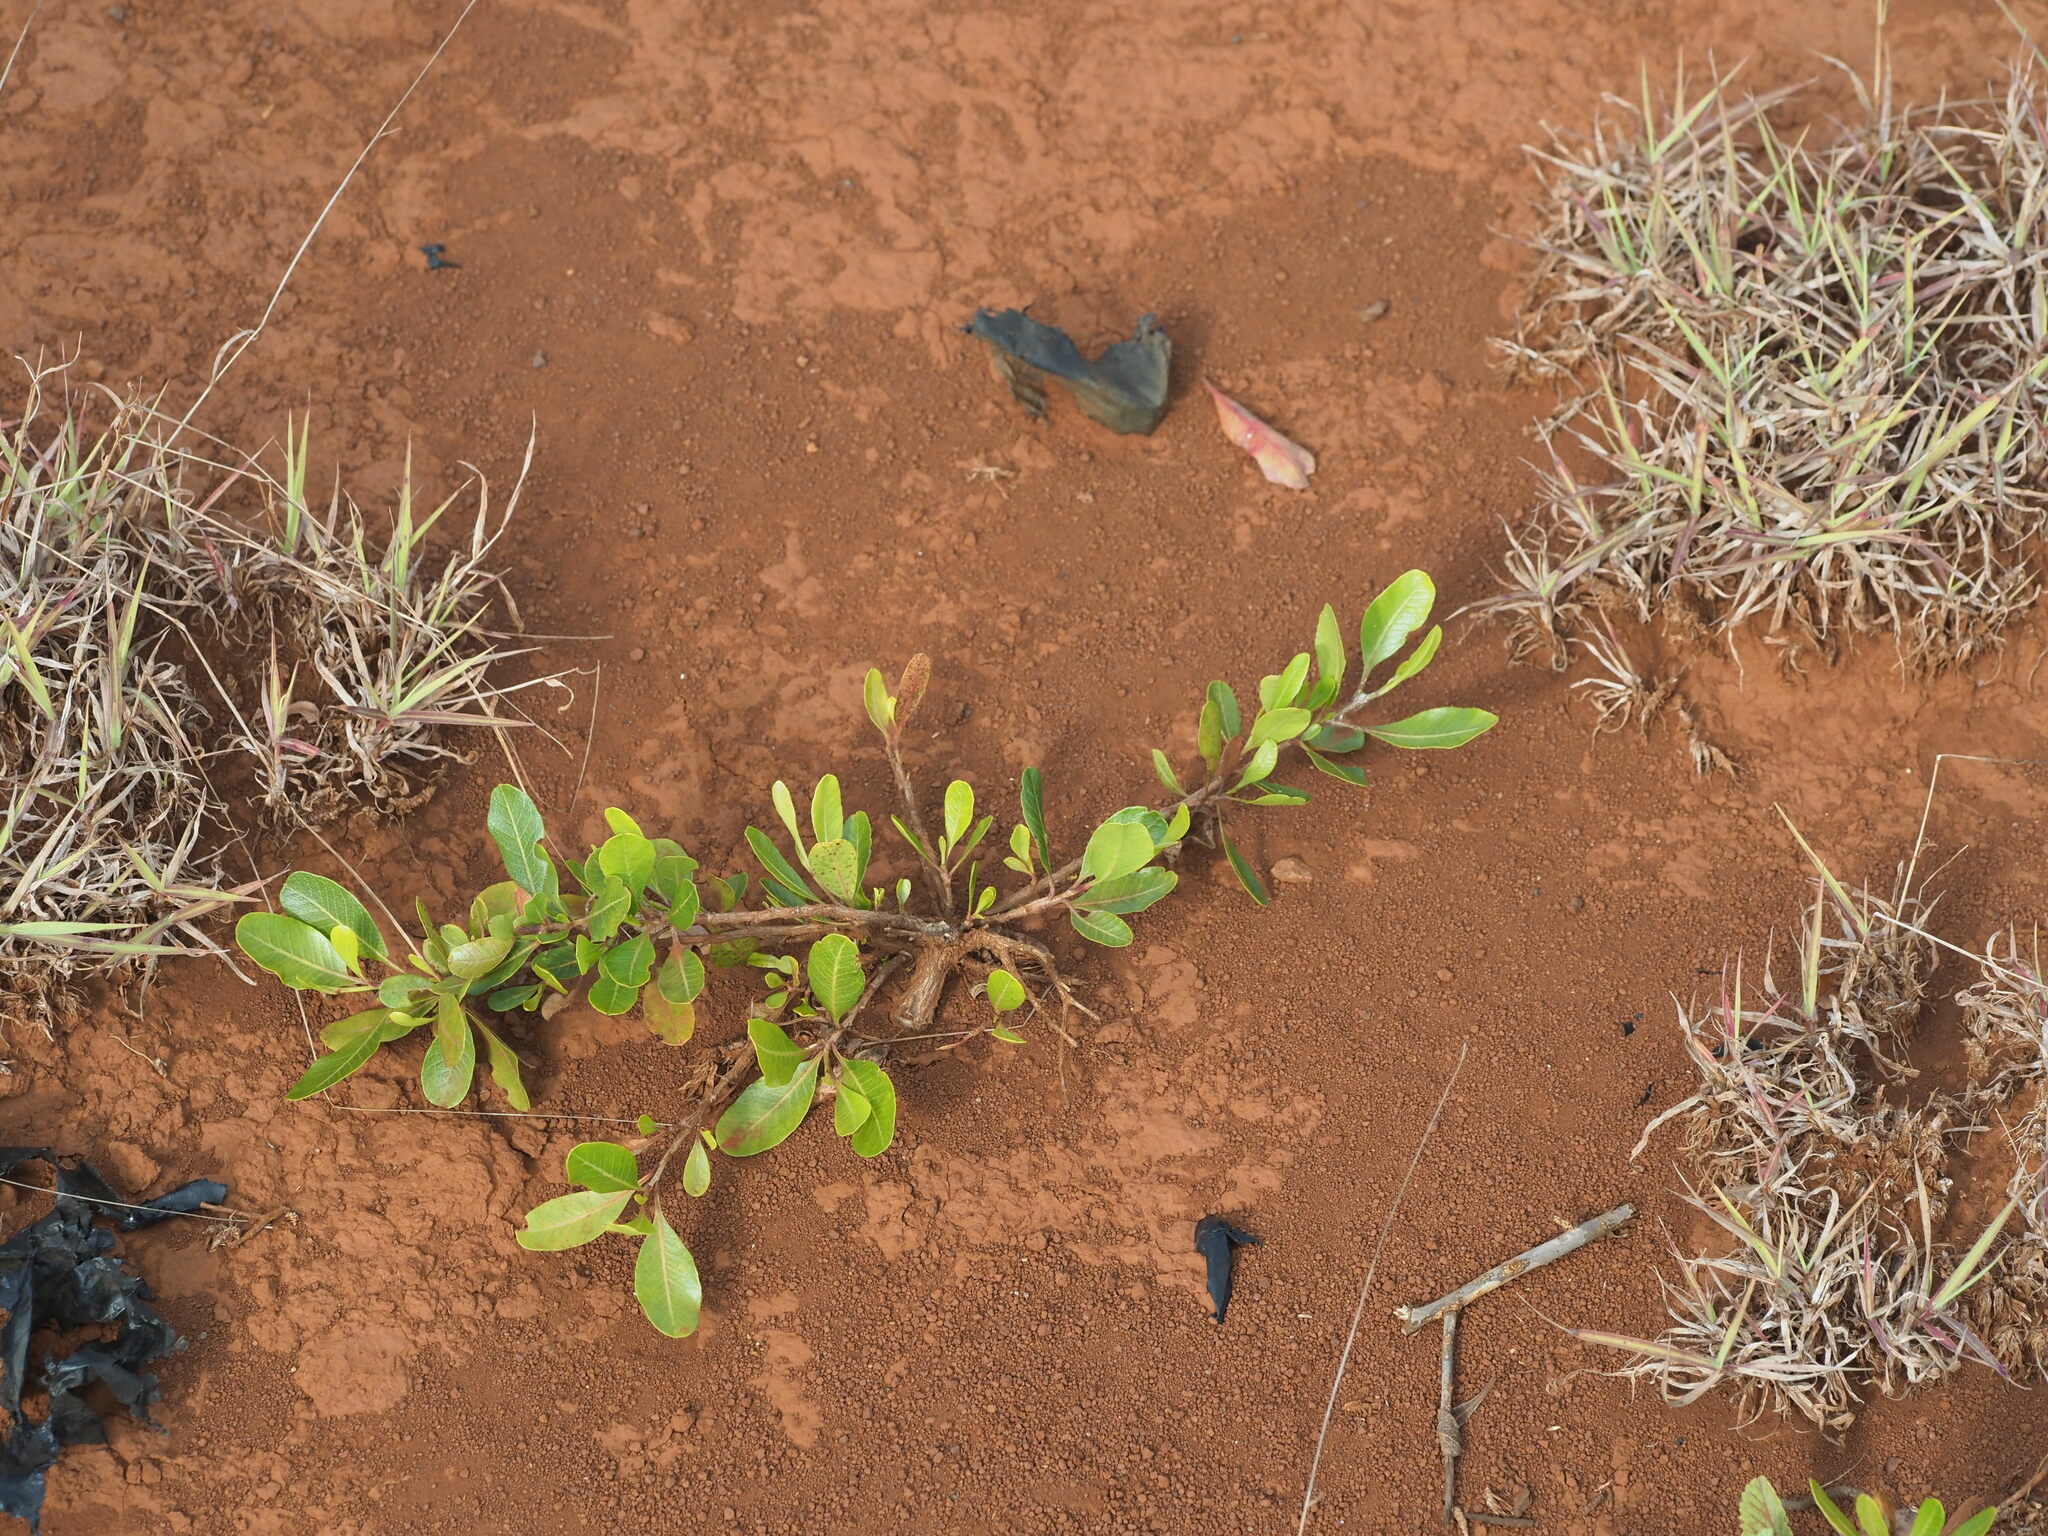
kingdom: Plantae
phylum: Tracheophyta
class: Magnoliopsida
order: Sapindales
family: Sapindaceae
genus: Dodonaea
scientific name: Dodonaea viscosa
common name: Hopbush
